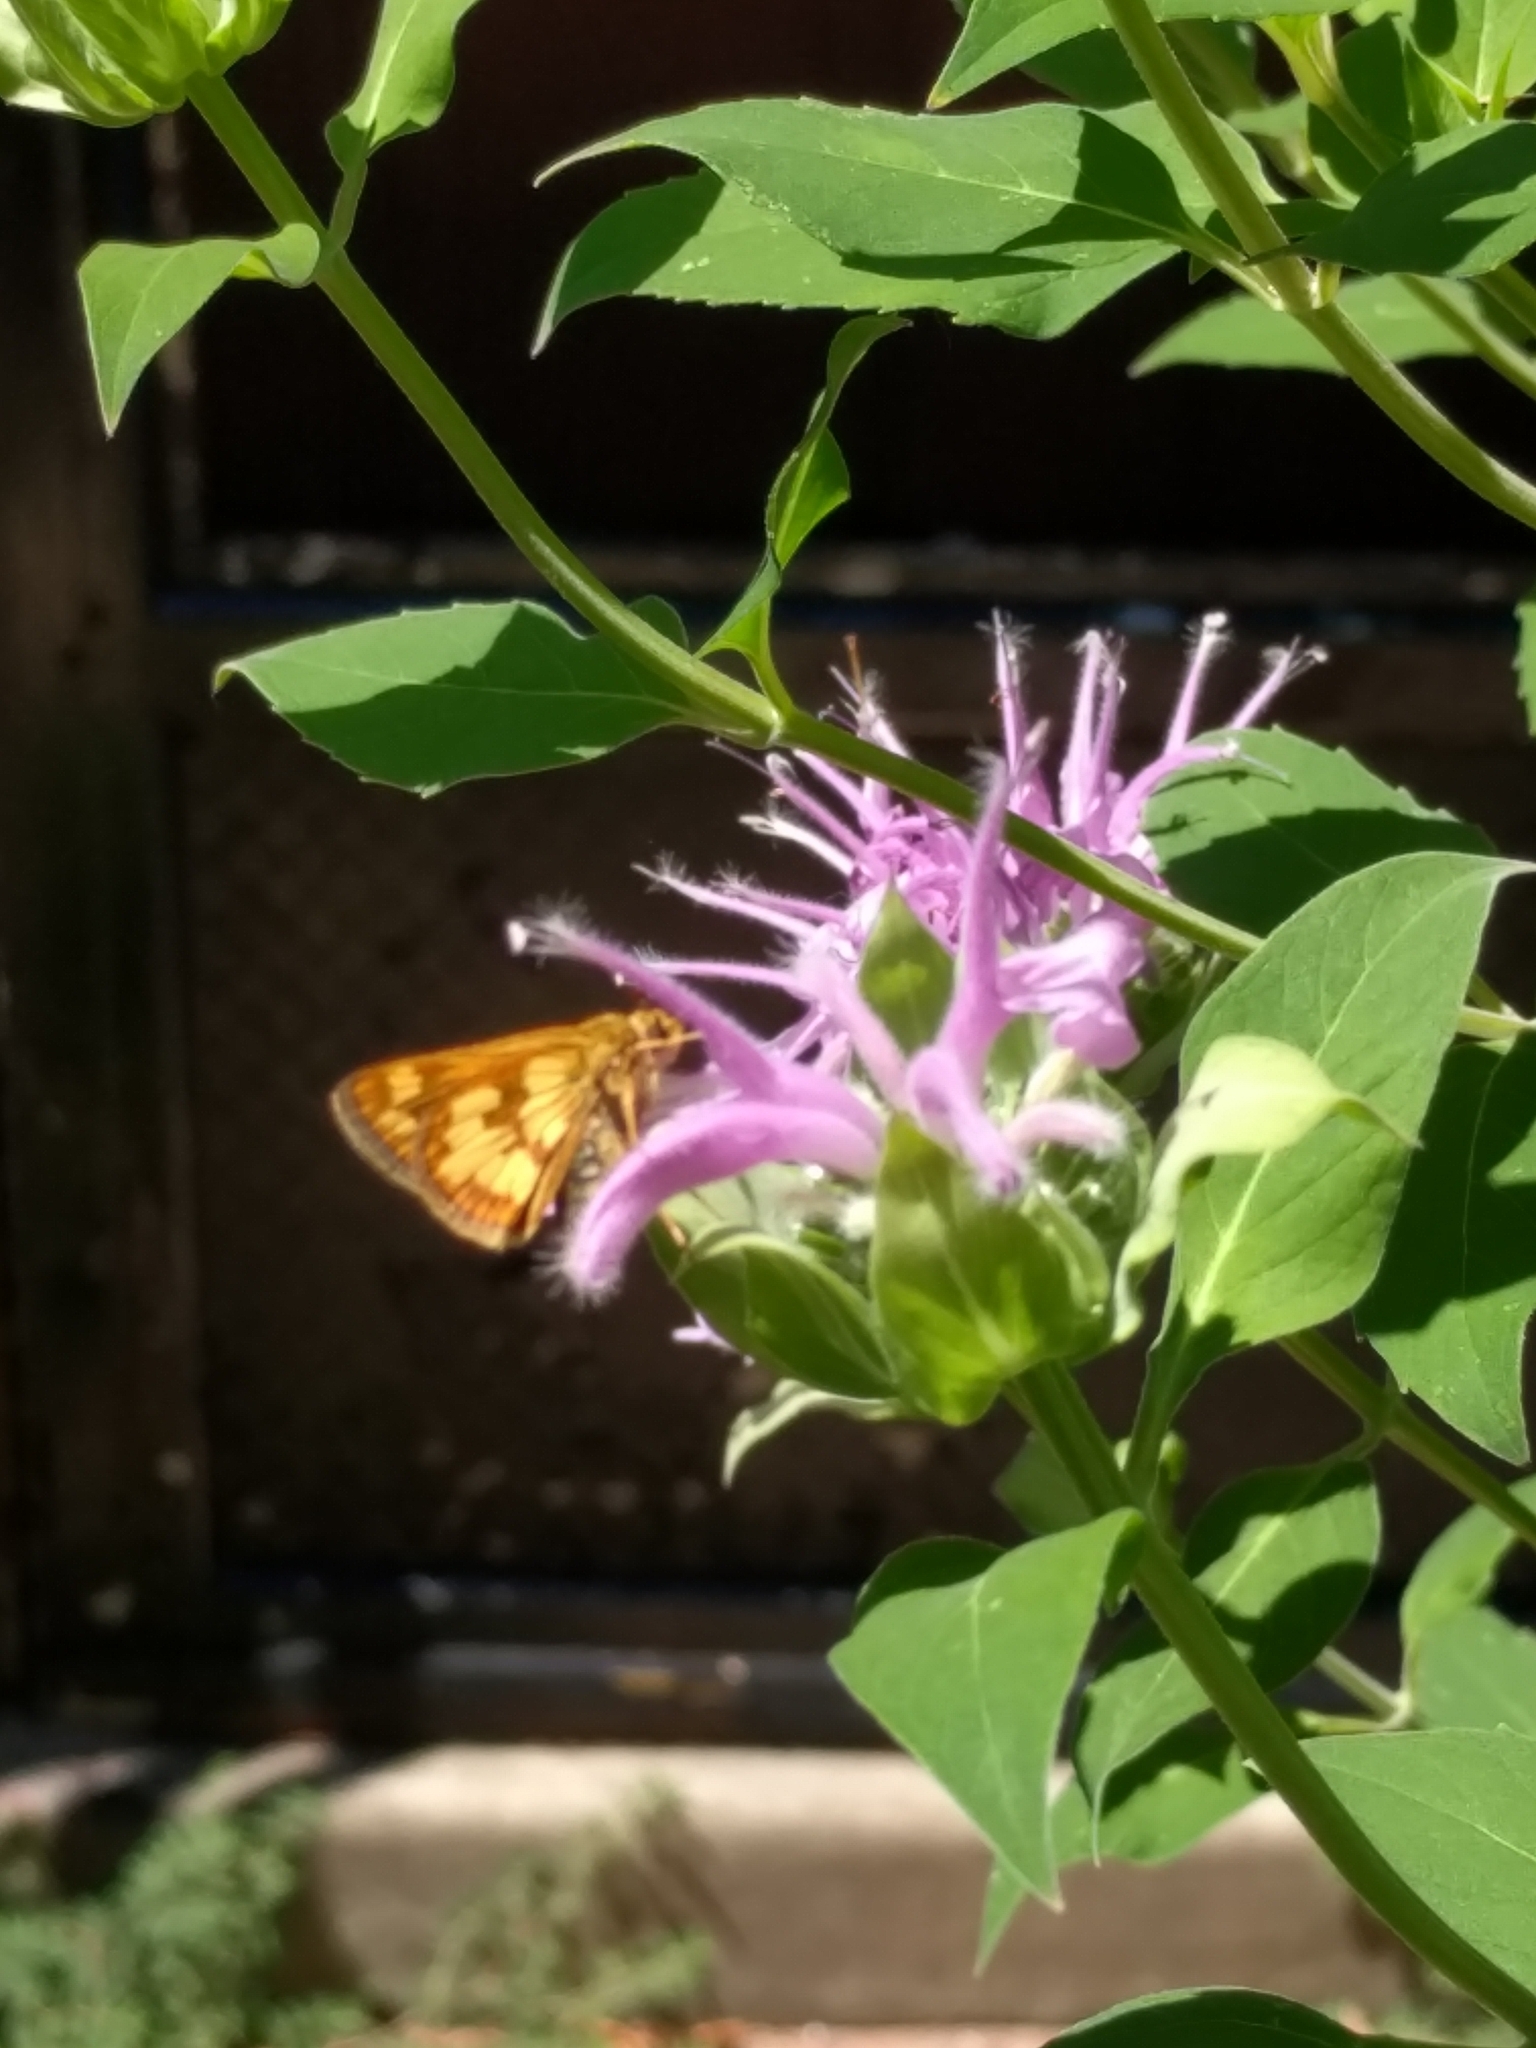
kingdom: Animalia
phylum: Arthropoda
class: Insecta
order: Lepidoptera
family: Hesperiidae
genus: Polites
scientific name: Polites coras
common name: Peck's skipper
